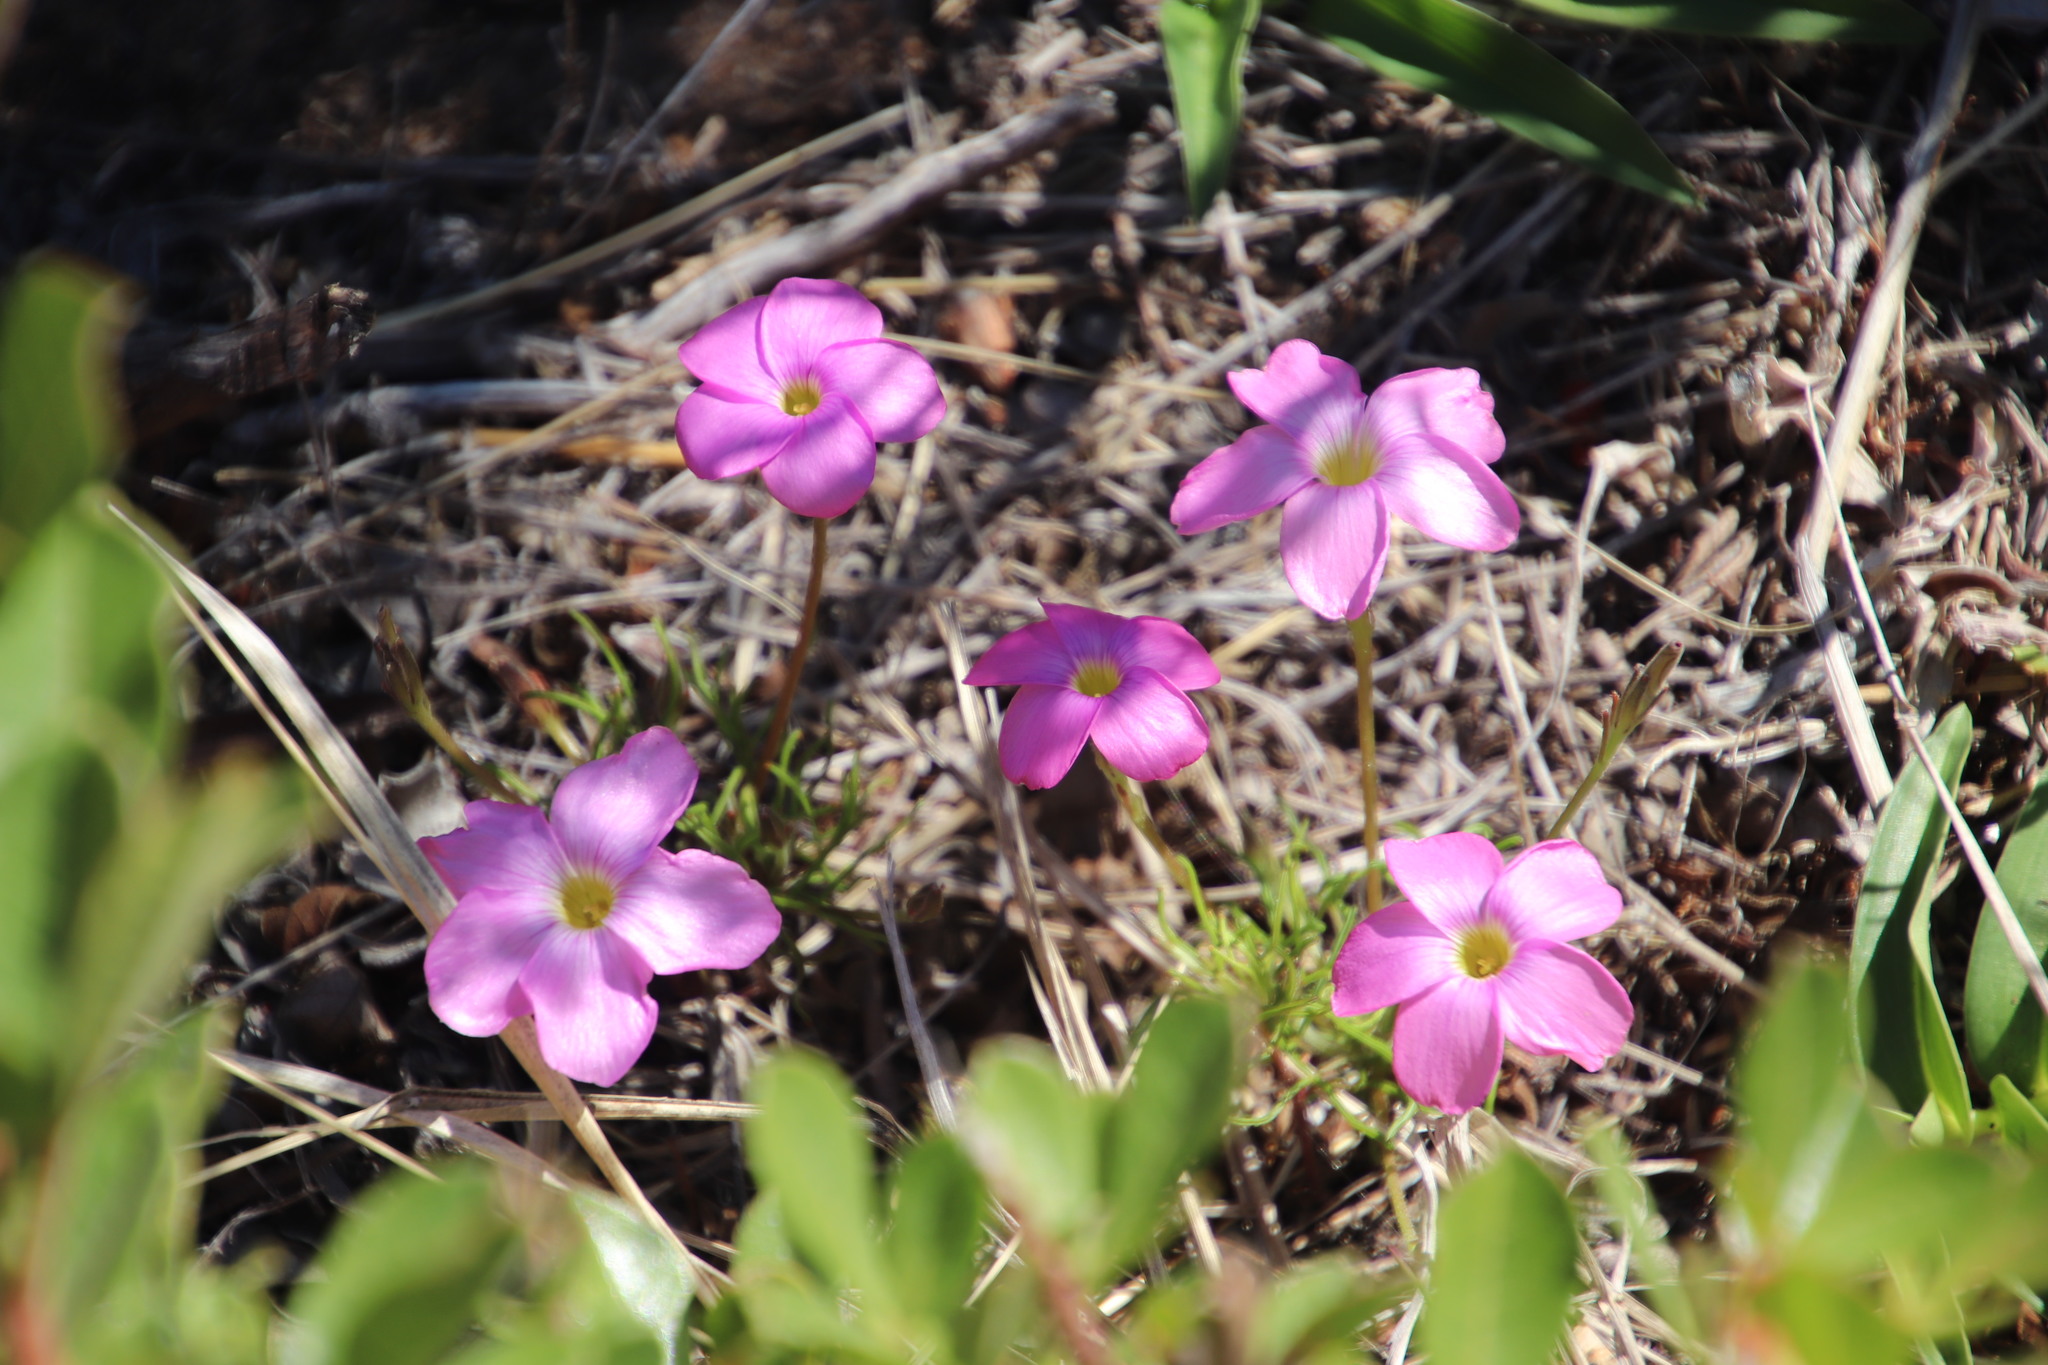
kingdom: Plantae
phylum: Tracheophyta
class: Magnoliopsida
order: Oxalidales
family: Oxalidaceae
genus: Oxalis
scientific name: Oxalis polyphylla
